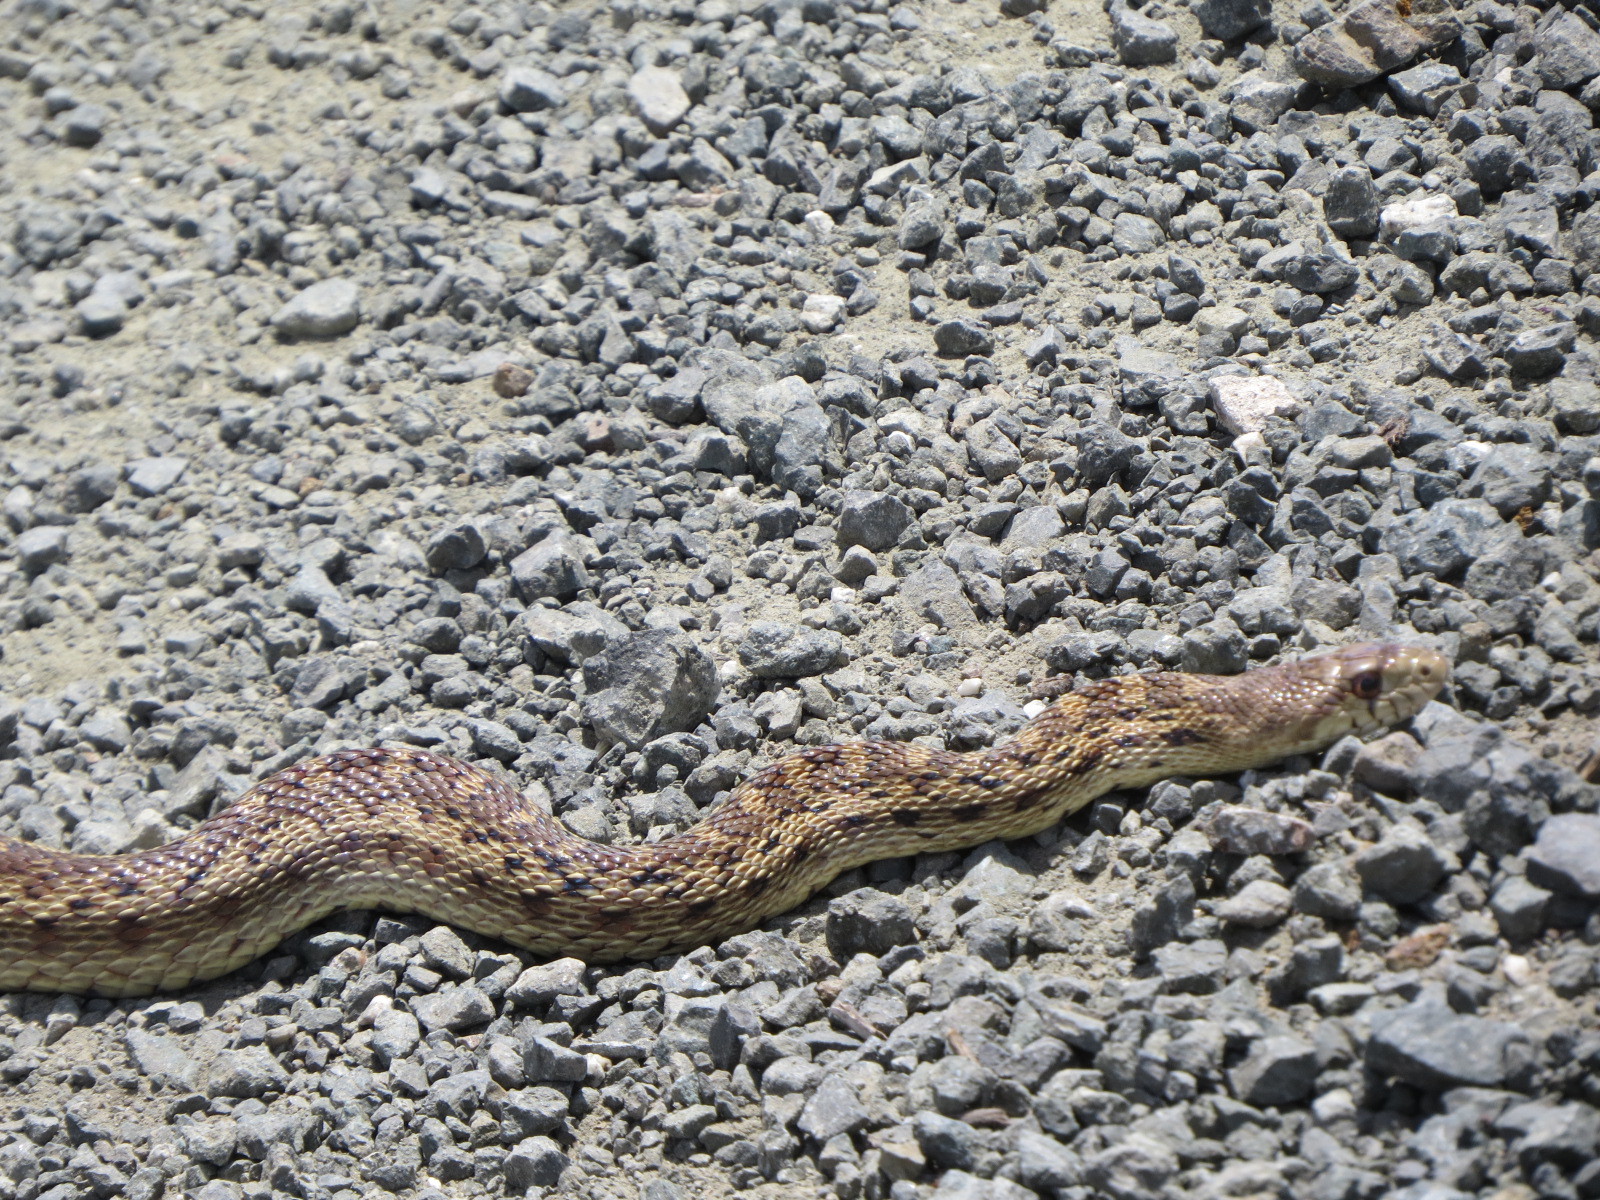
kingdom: Animalia
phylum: Chordata
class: Squamata
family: Colubridae
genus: Pituophis
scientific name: Pituophis catenifer
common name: Gopher snake
